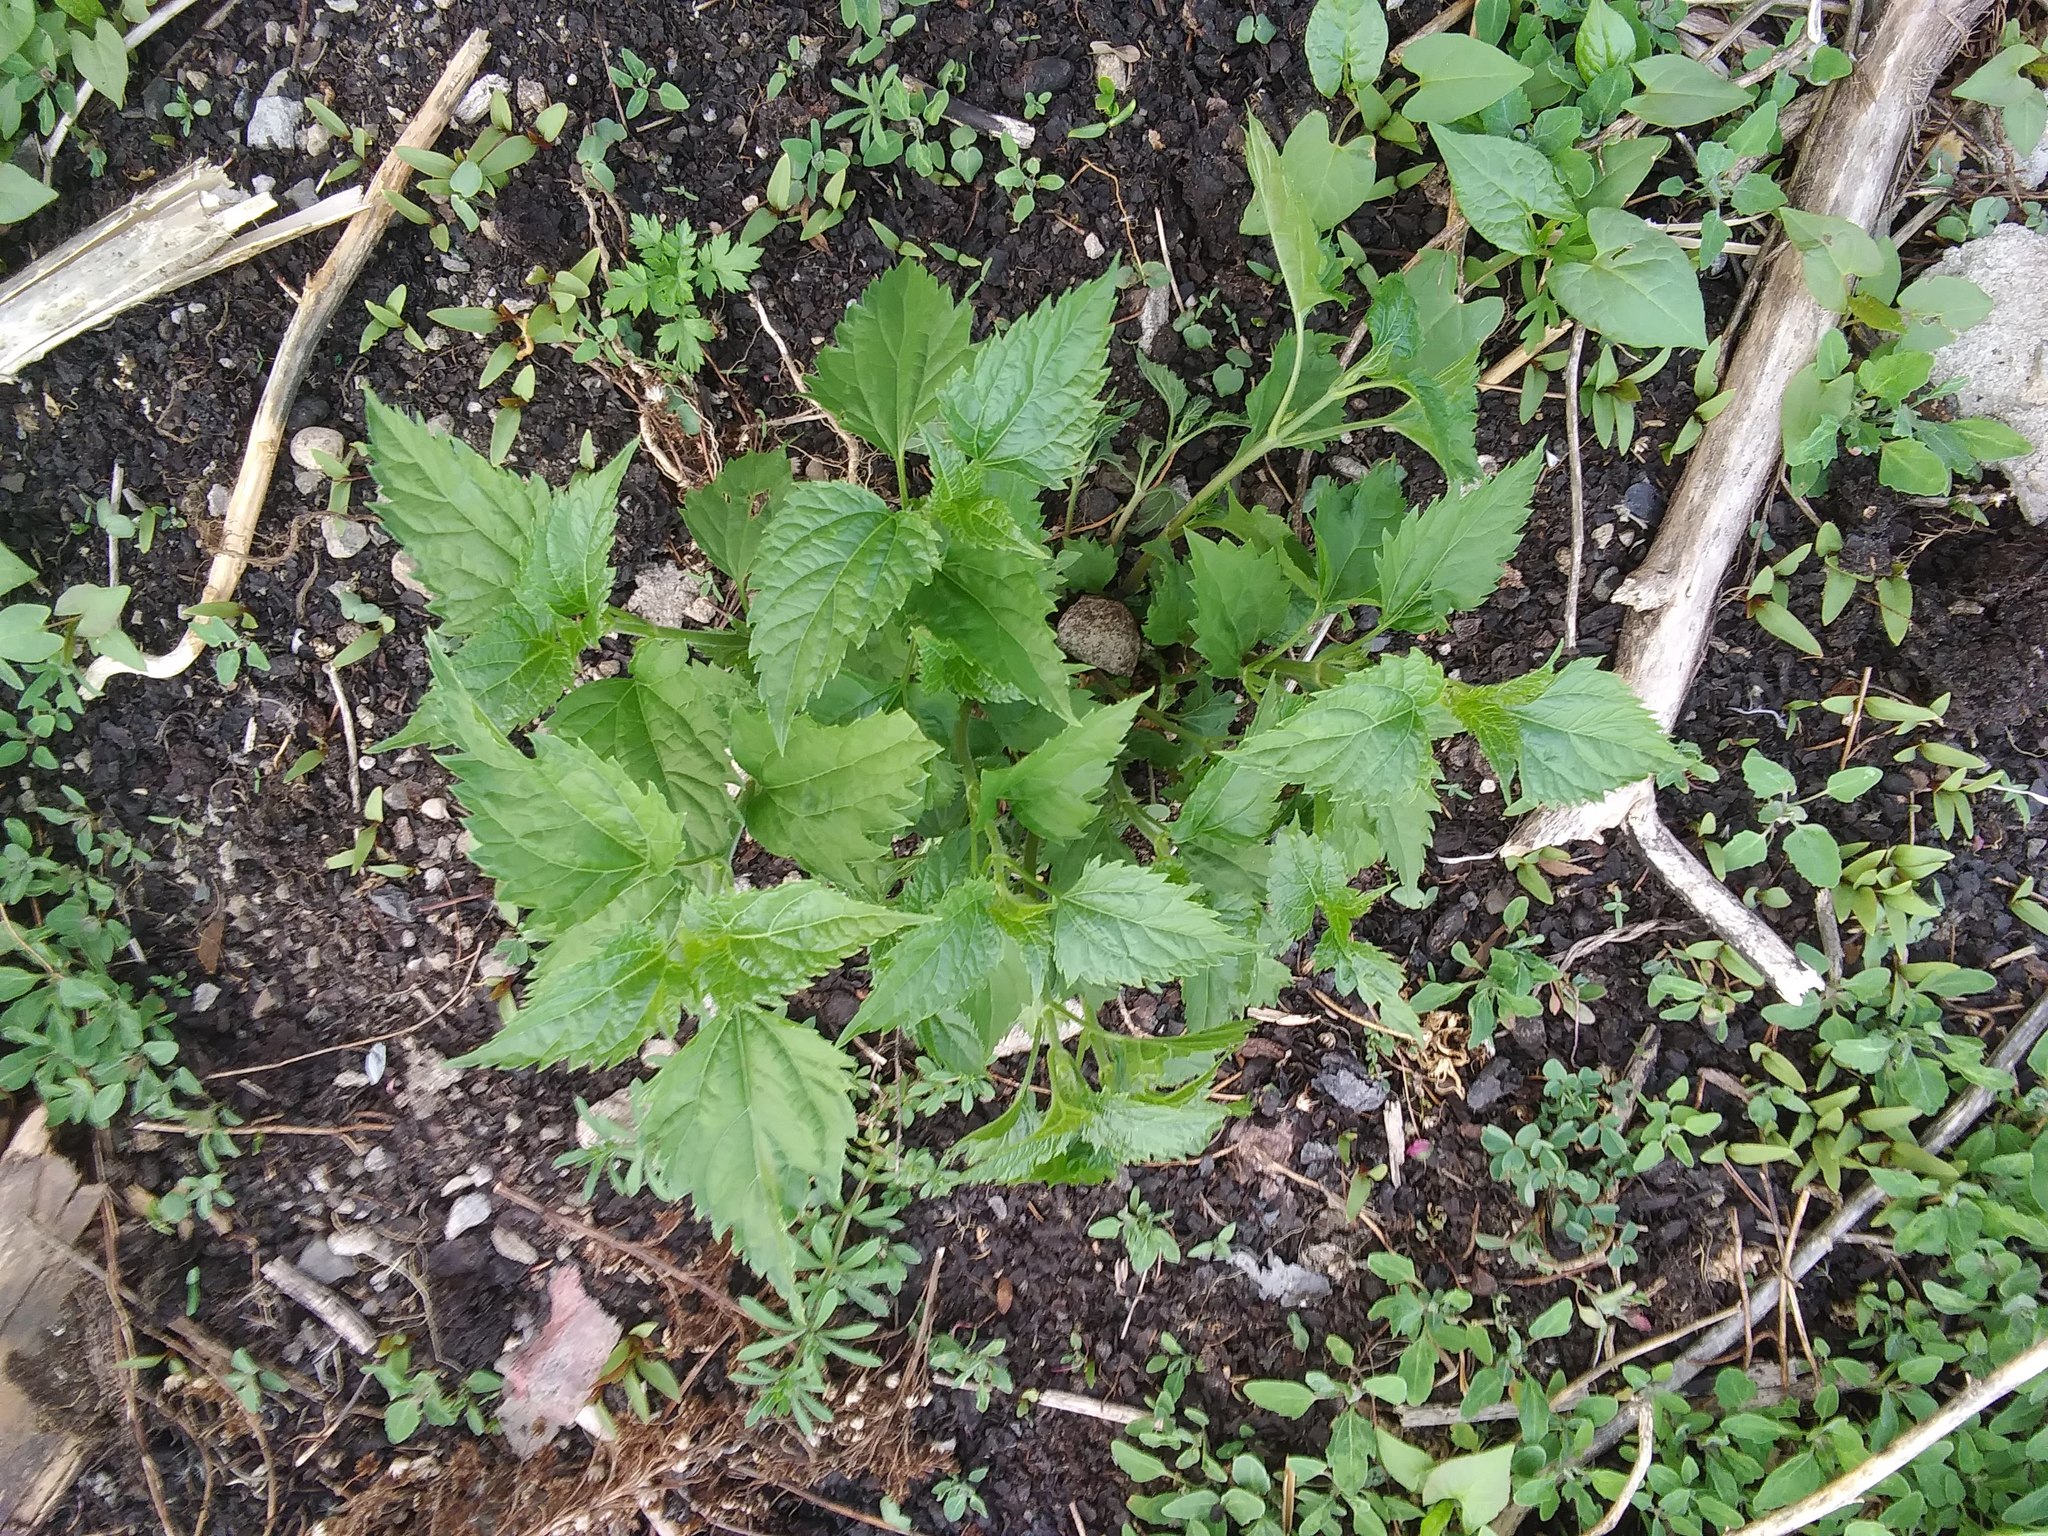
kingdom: Plantae
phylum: Tracheophyta
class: Magnoliopsida
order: Asterales
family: Asteraceae
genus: Ageratina
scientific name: Ageratina altissima
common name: White snakeroot
